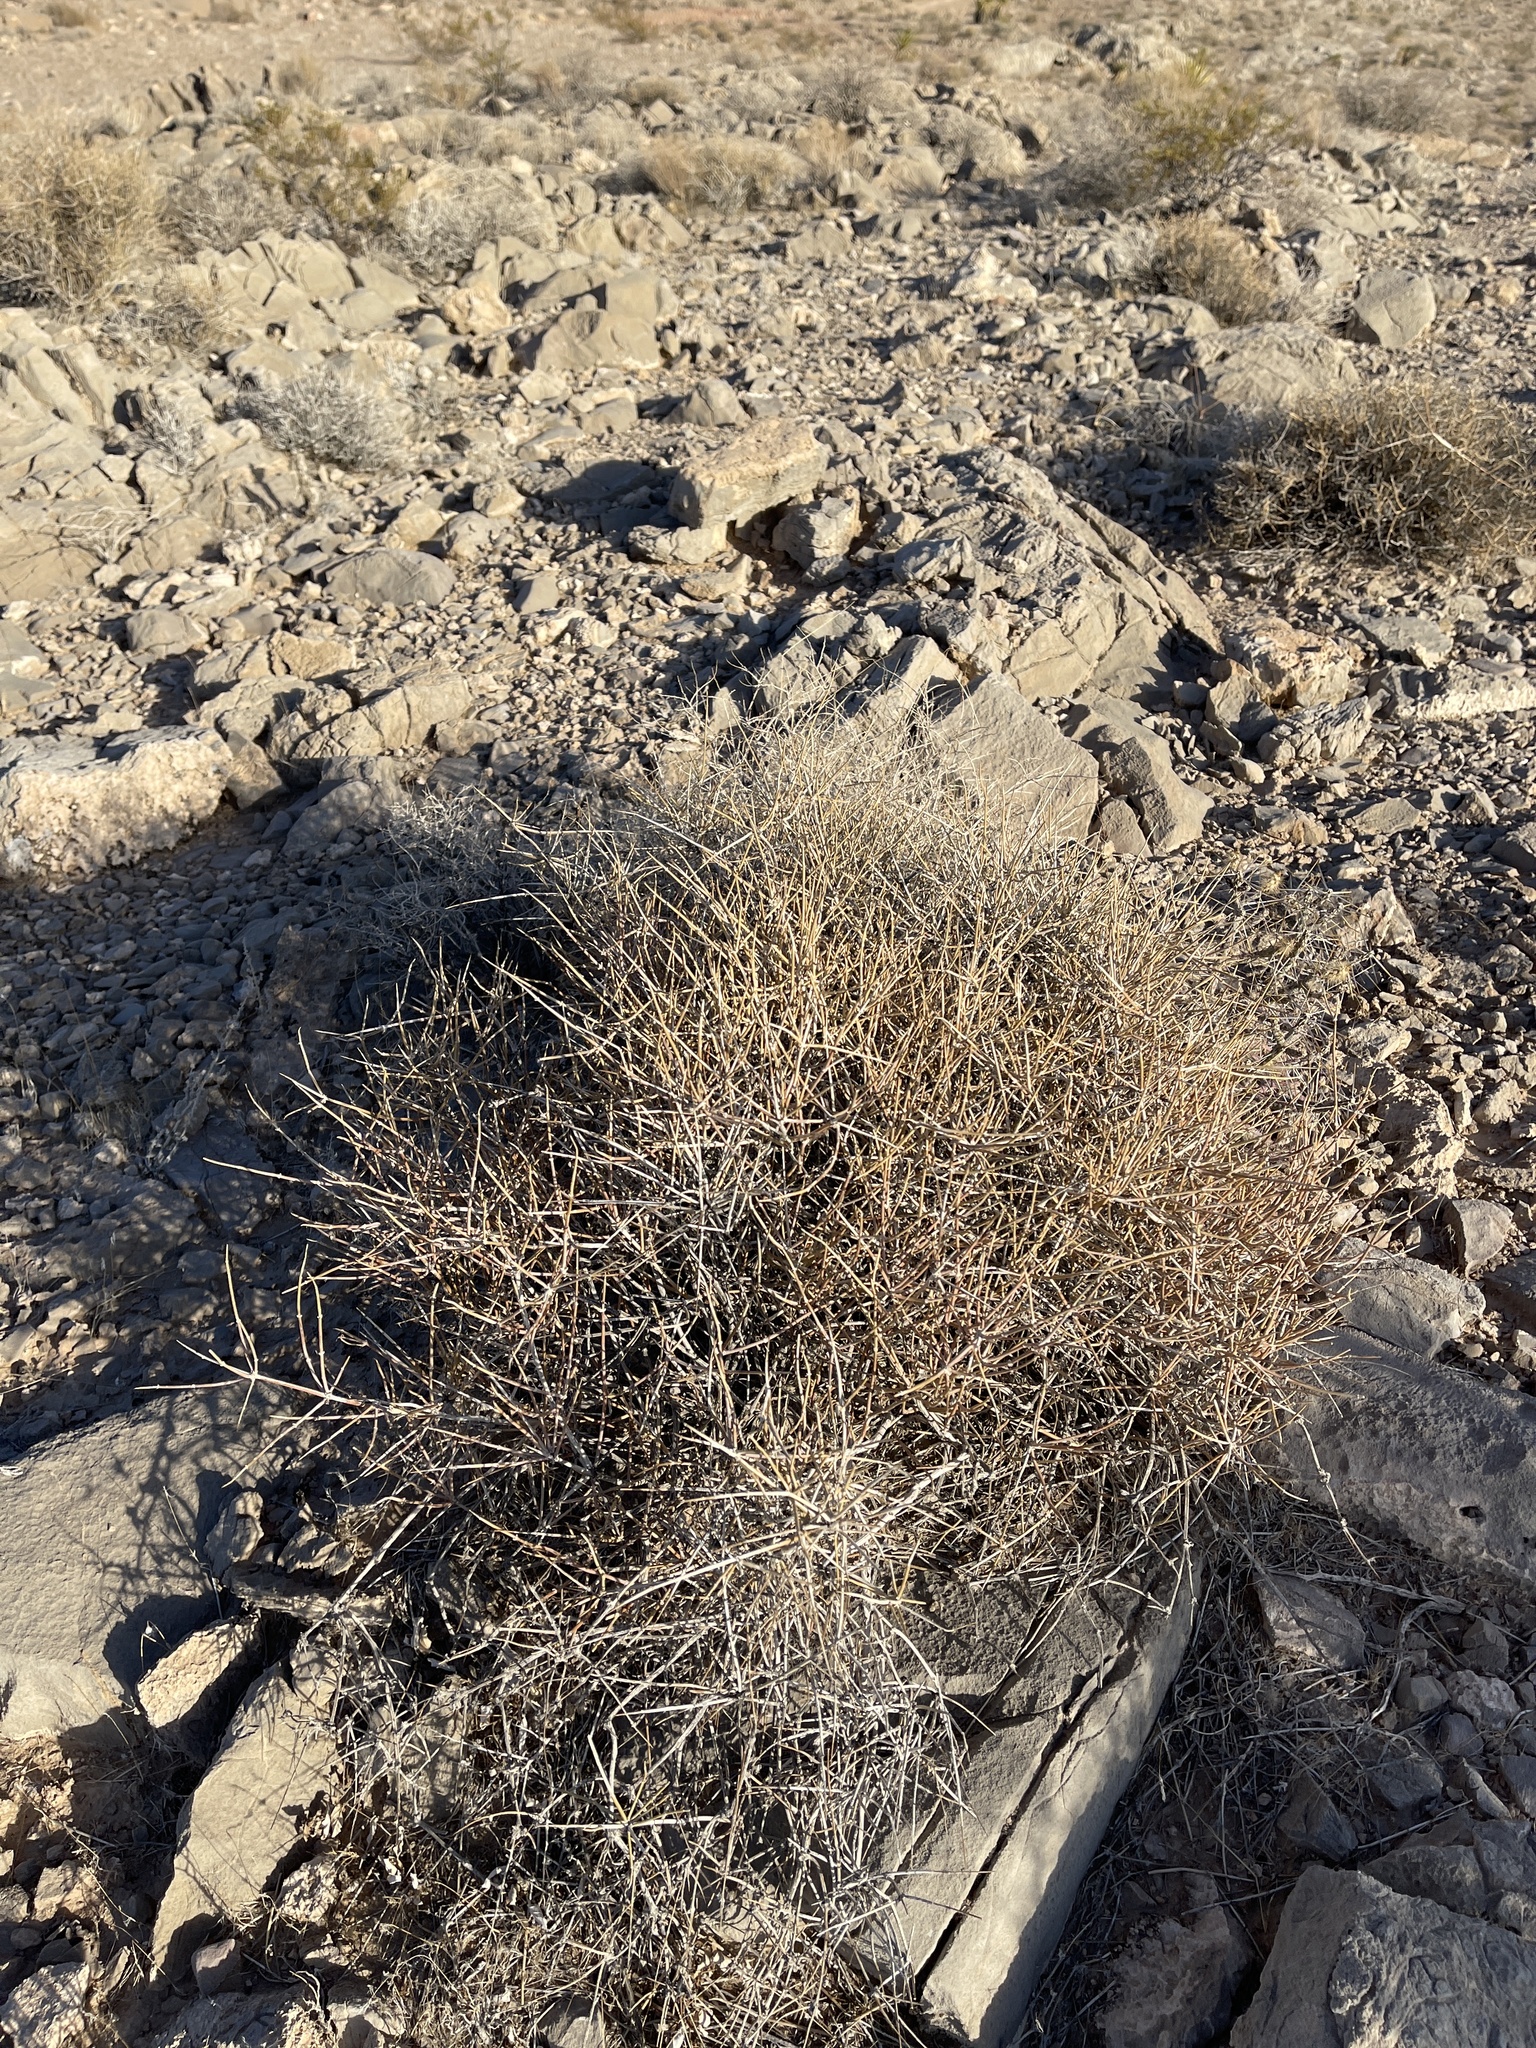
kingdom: Plantae
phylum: Tracheophyta
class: Gnetopsida
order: Ephedrales
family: Ephedraceae
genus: Ephedra
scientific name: Ephedra nevadensis
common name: Gray ephedra
